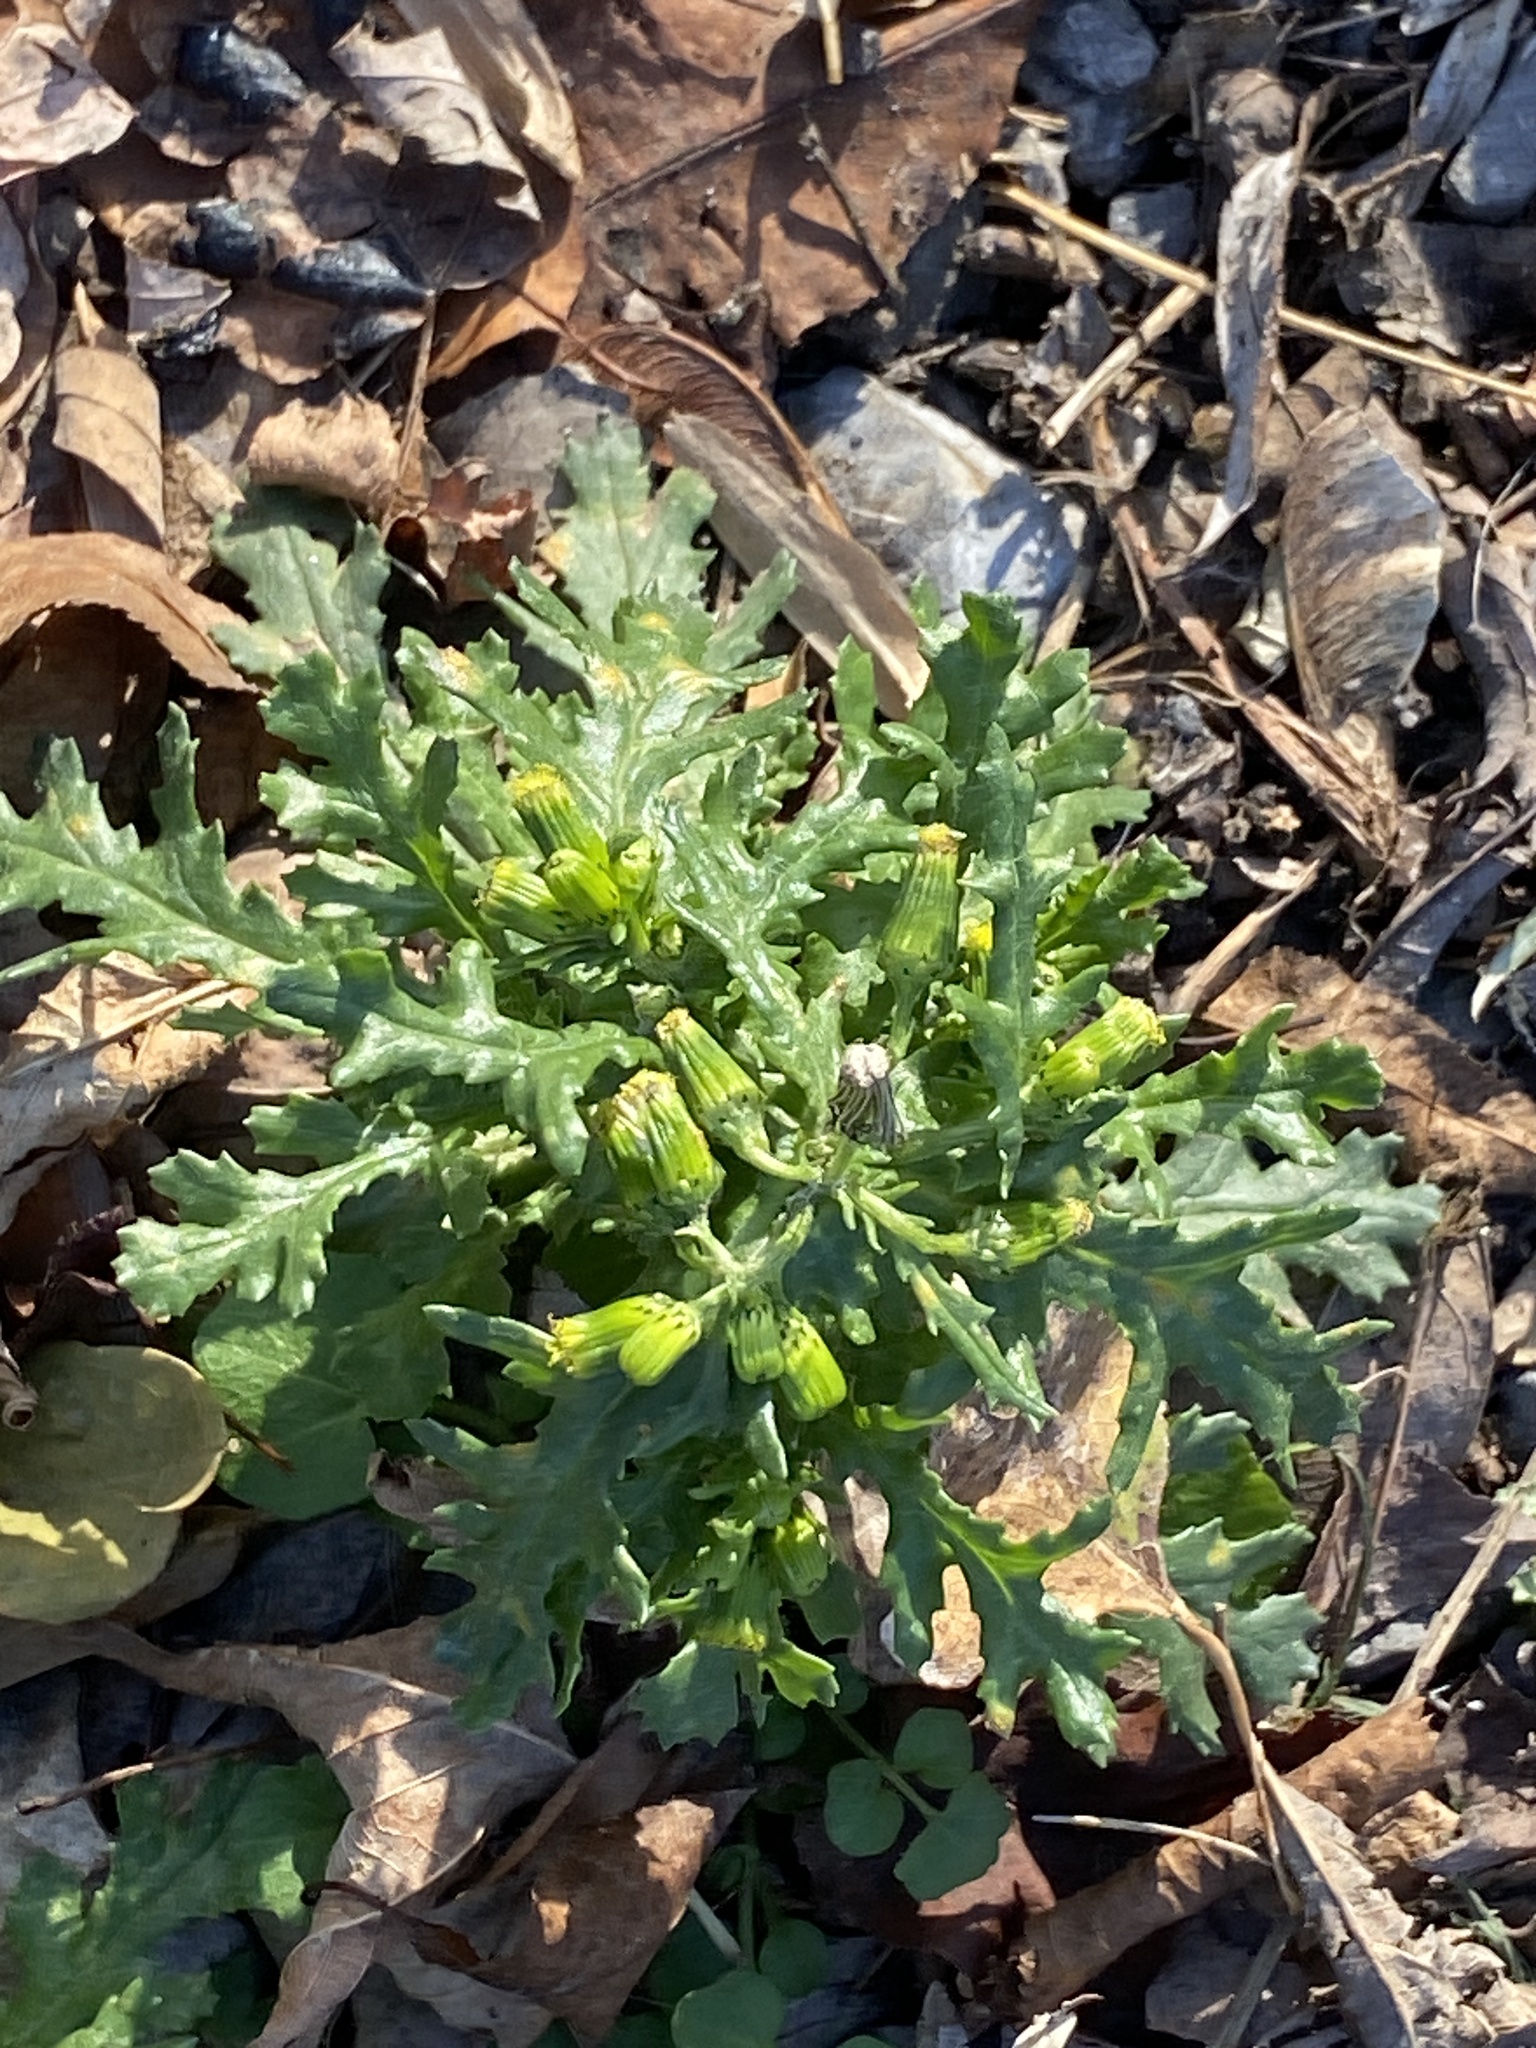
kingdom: Plantae
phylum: Tracheophyta
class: Magnoliopsida
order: Asterales
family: Asteraceae
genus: Senecio
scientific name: Senecio vulgaris
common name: Old-man-in-the-spring
